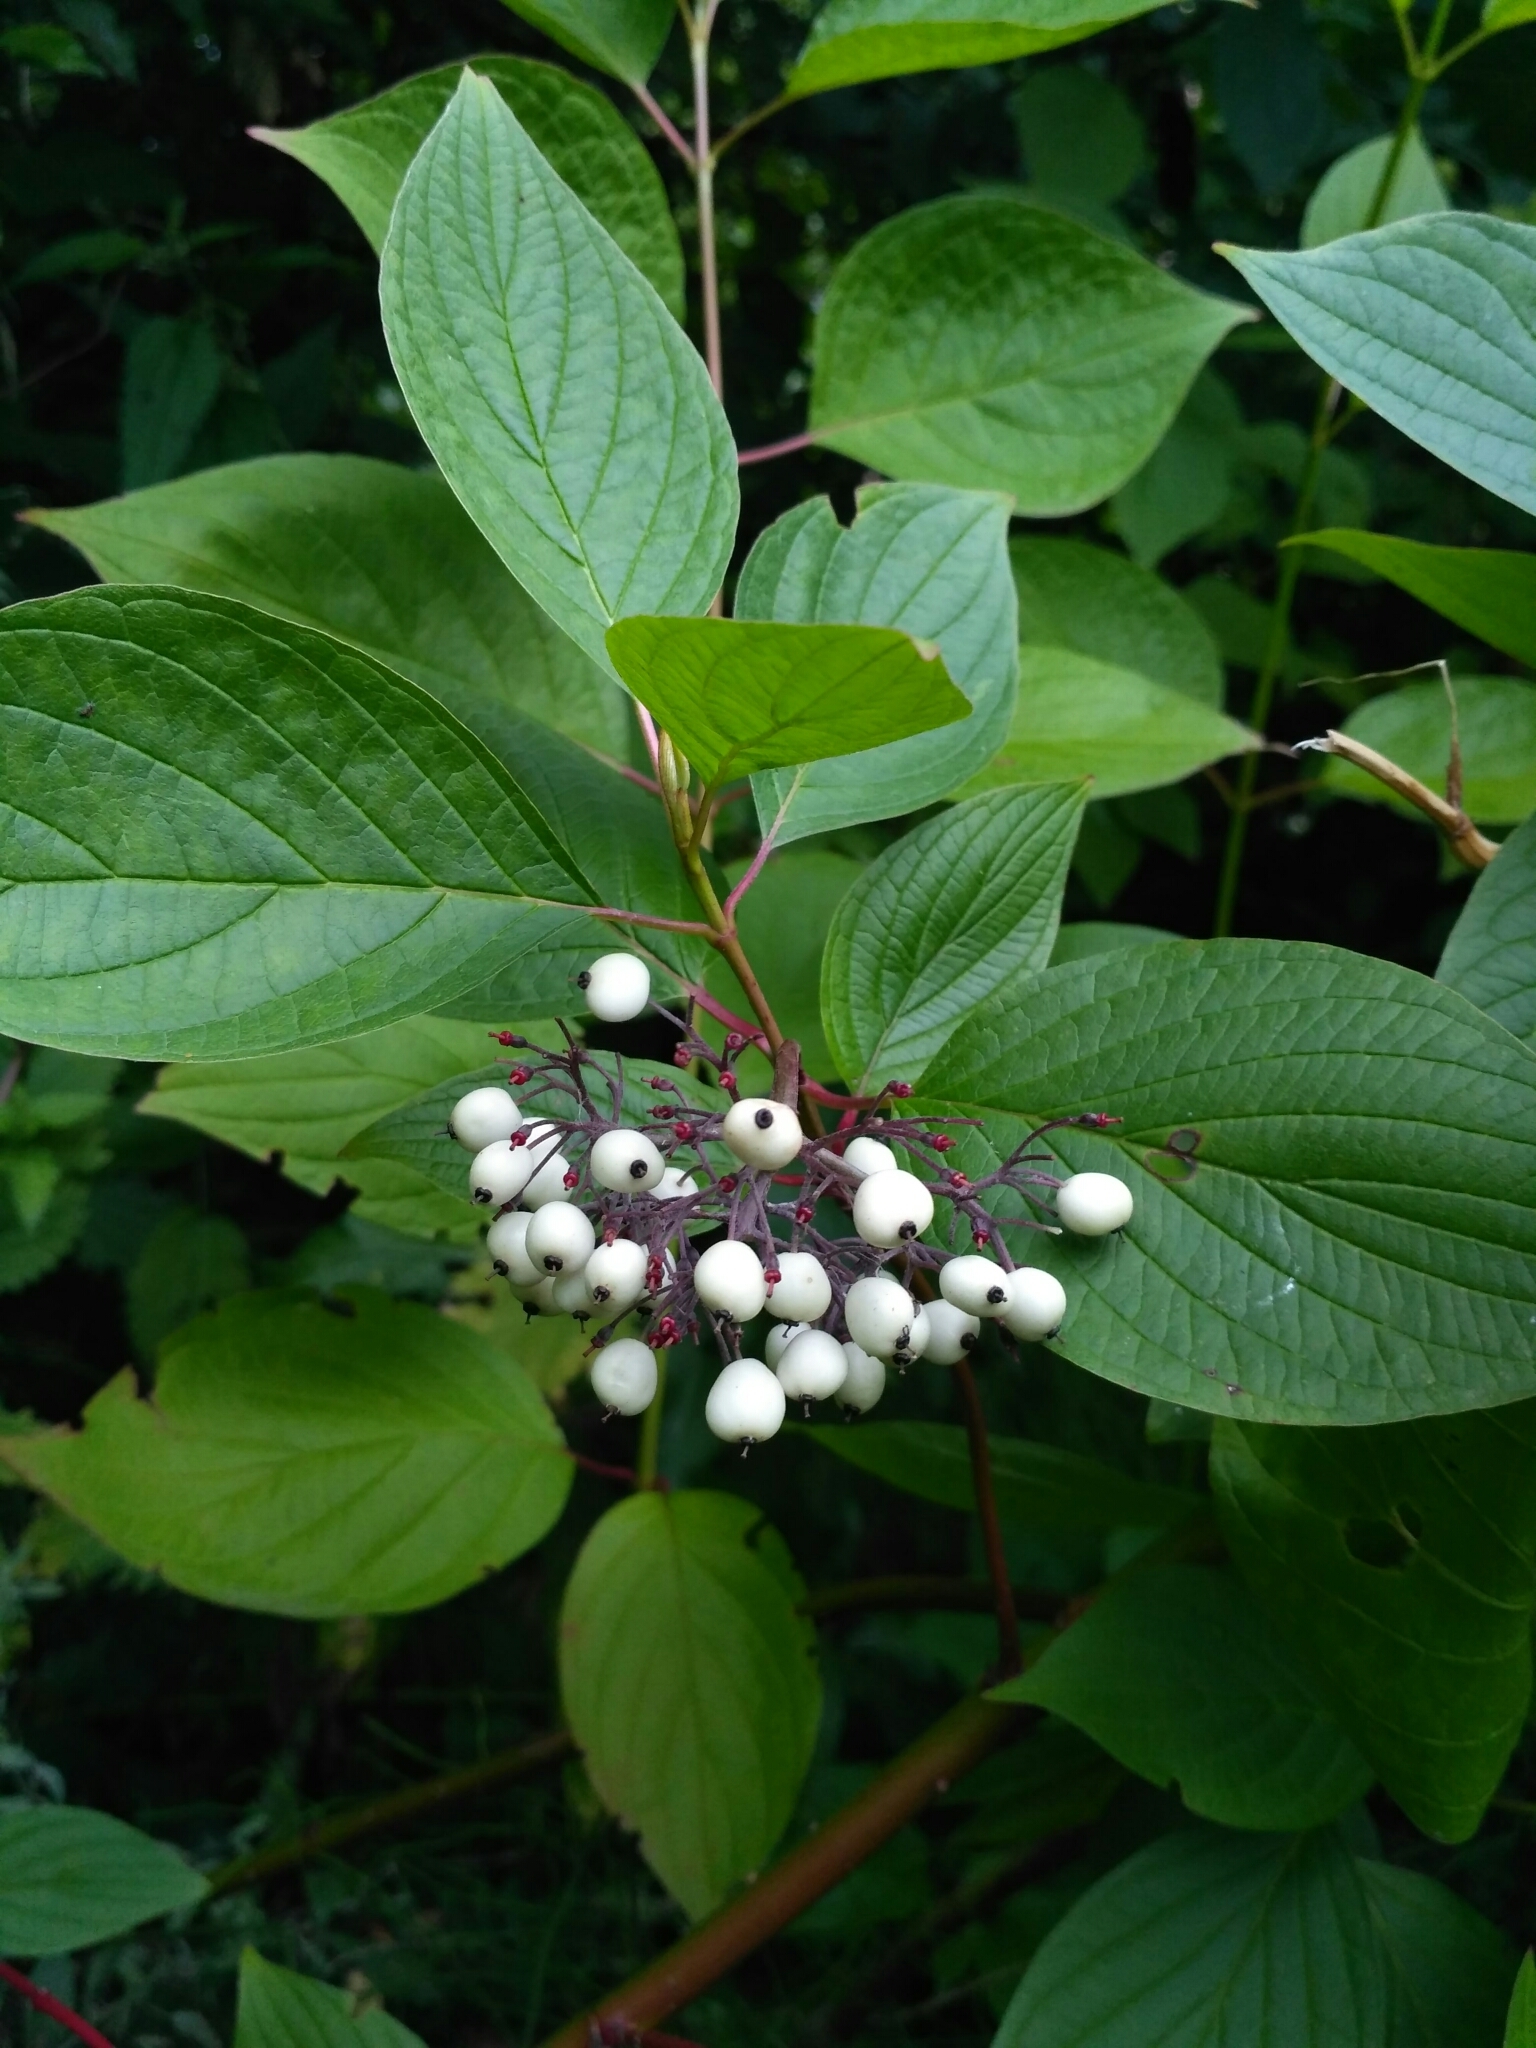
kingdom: Plantae
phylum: Tracheophyta
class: Magnoliopsida
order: Cornales
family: Cornaceae
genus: Cornus
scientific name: Cornus alba
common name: White dogwood
